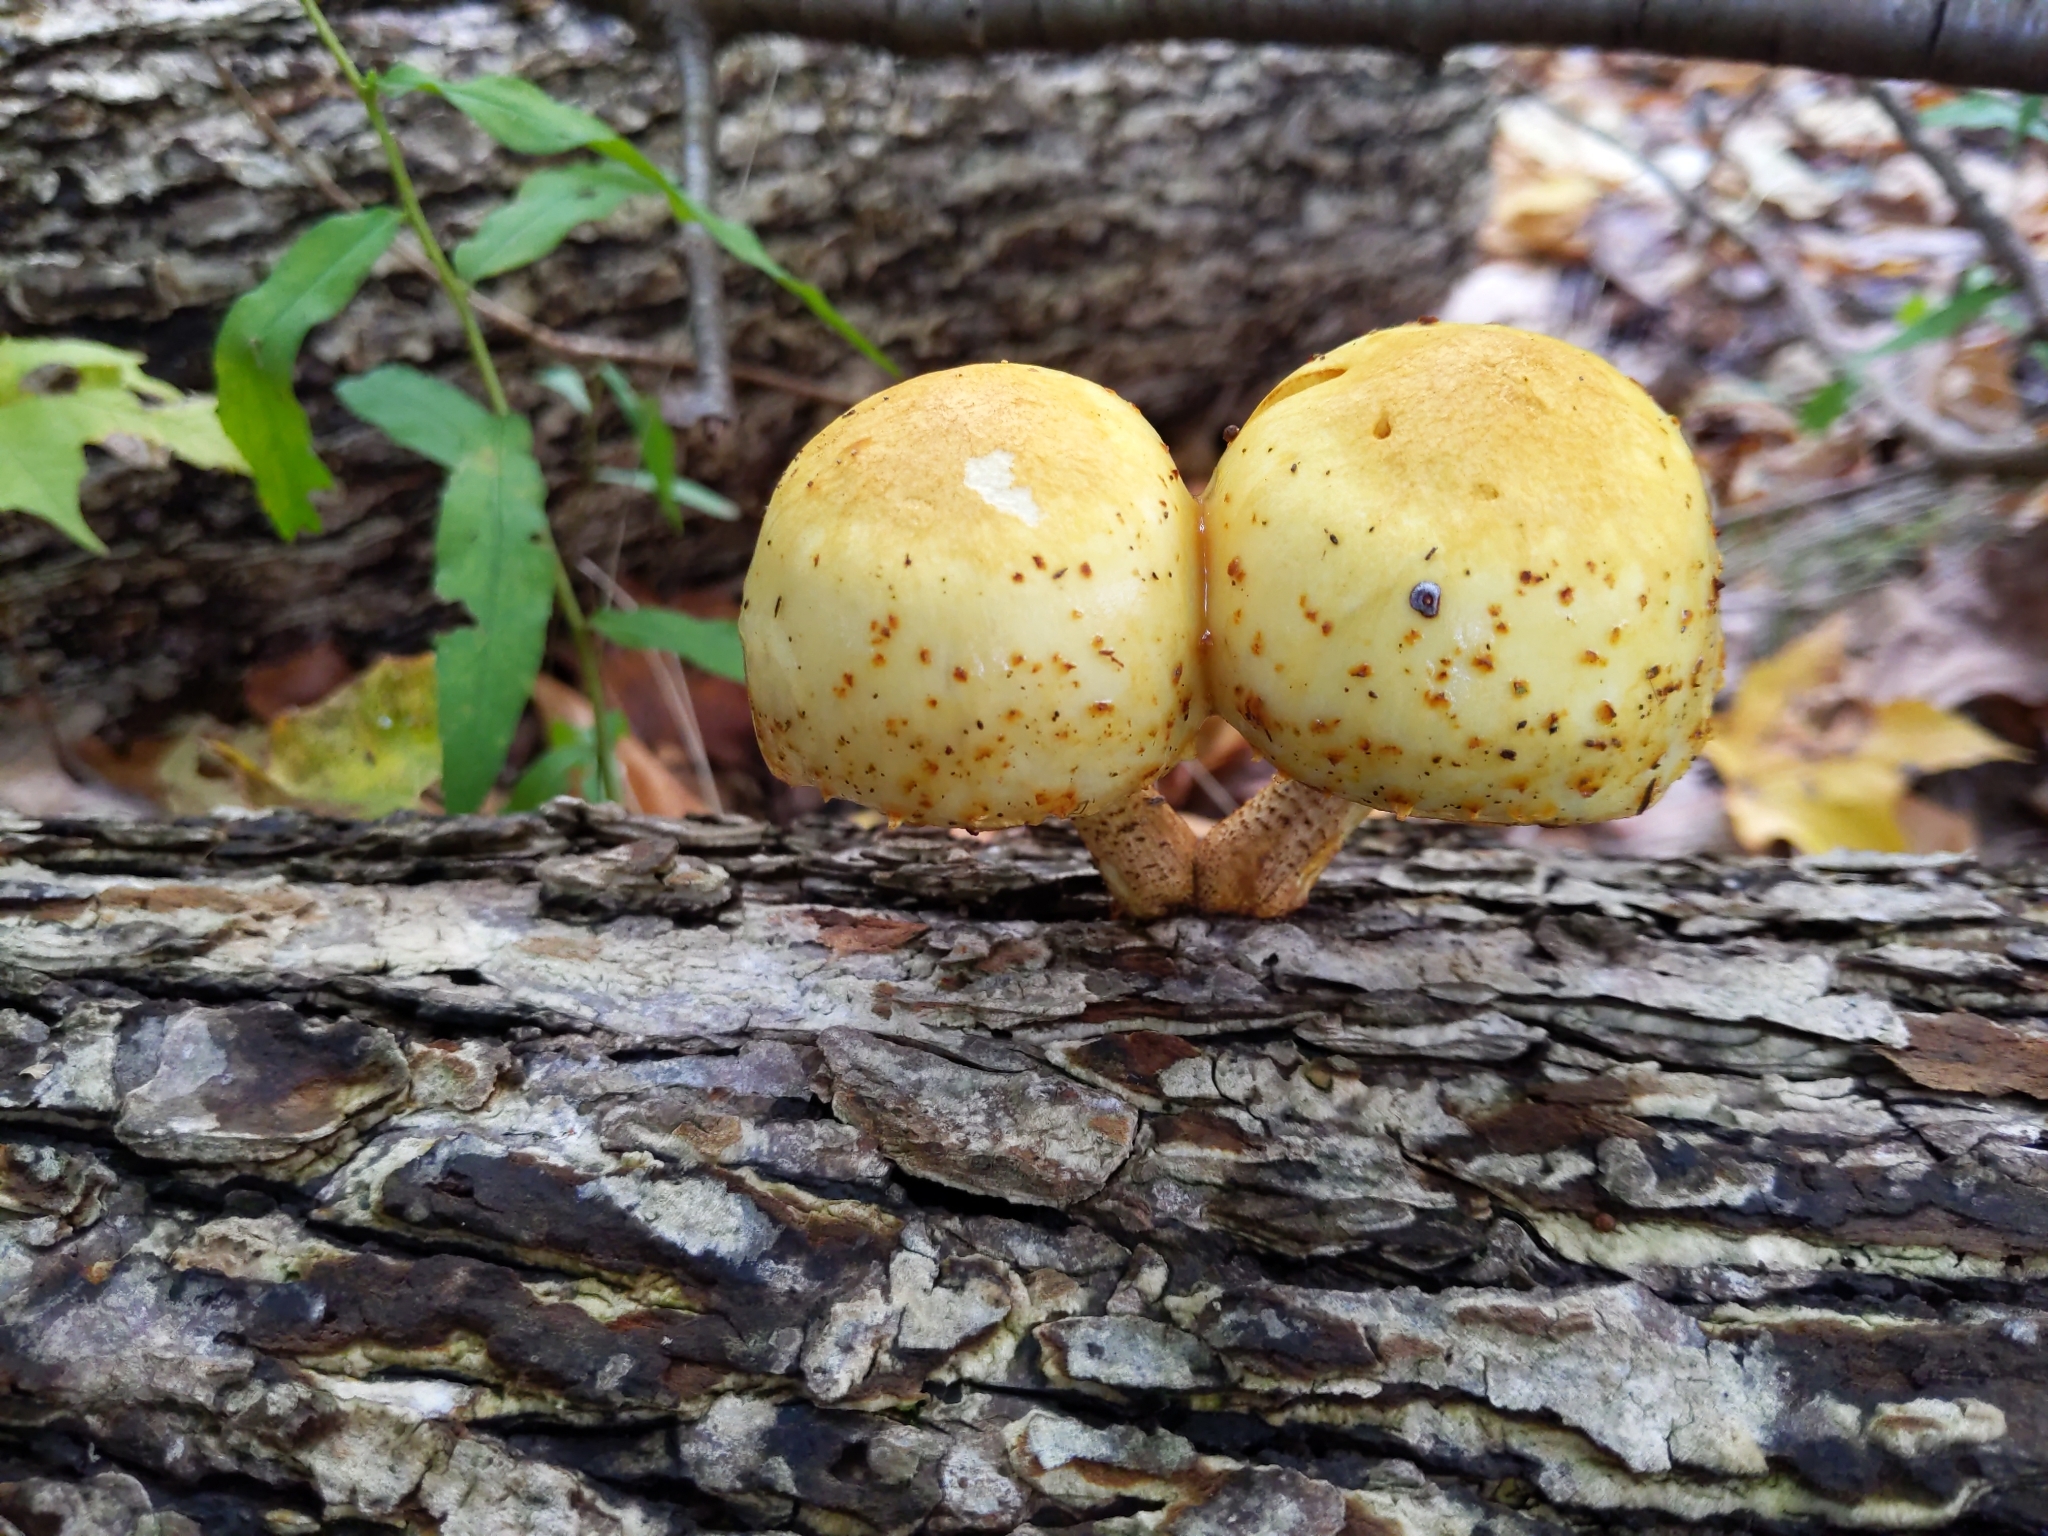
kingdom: Fungi
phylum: Basidiomycota
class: Agaricomycetes
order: Agaricales
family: Strophariaceae
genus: Pholiota
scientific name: Pholiota aurivella
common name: Golden scalycap
